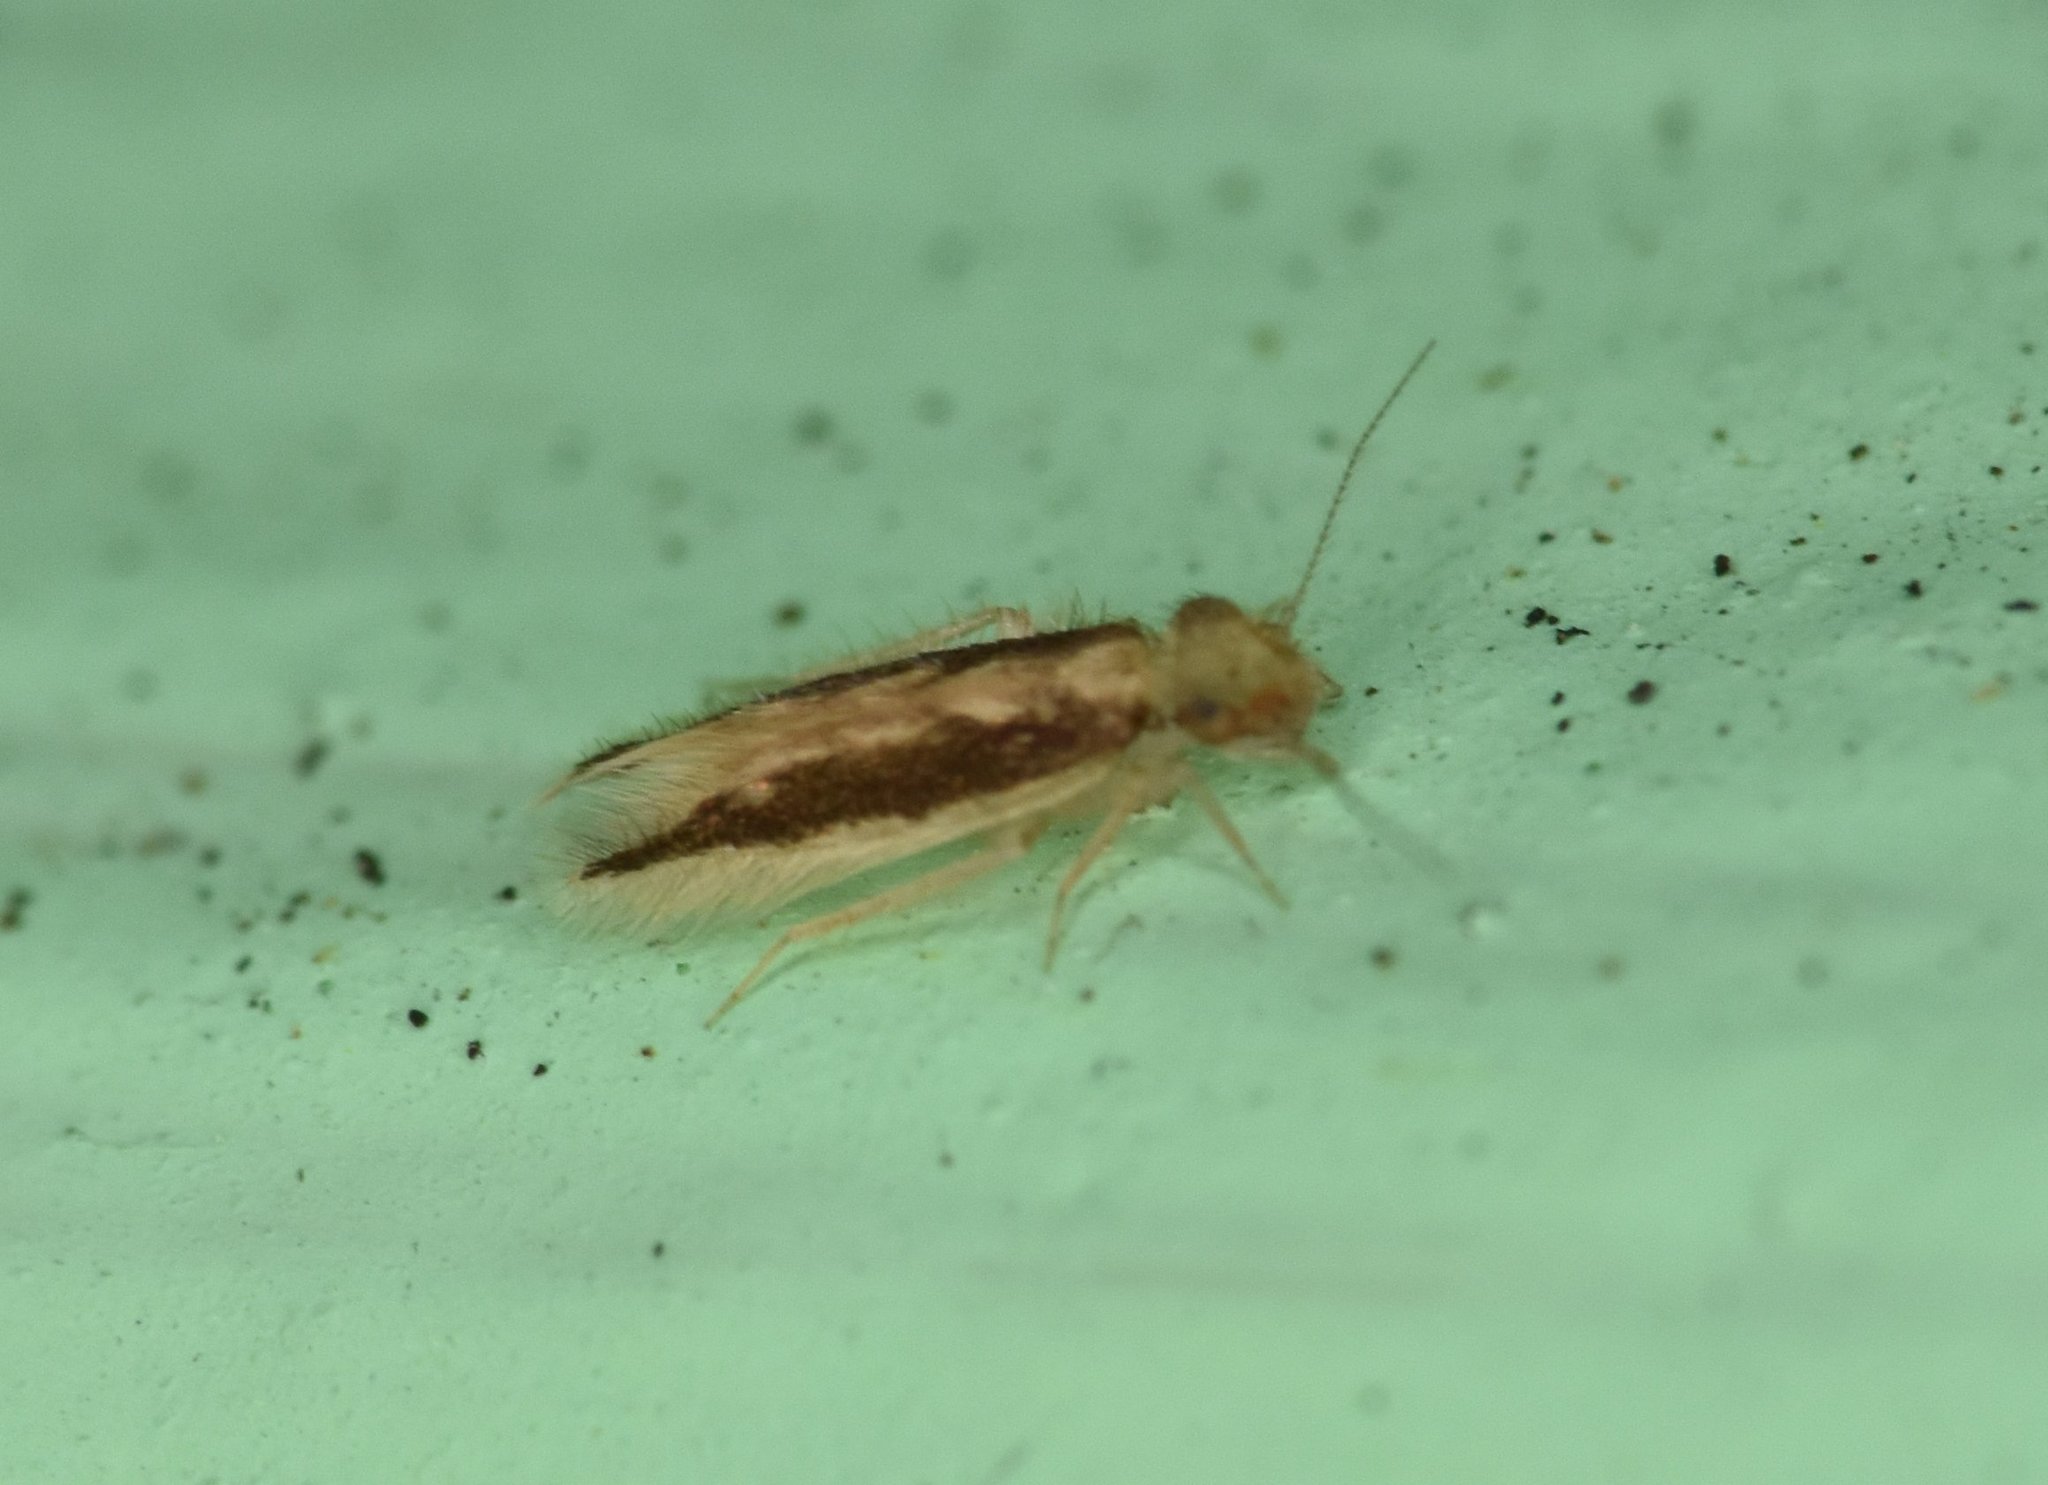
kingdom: Animalia
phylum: Arthropoda
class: Insecta
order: Psocodea
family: Lepidopsocidae
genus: Echmepteryx
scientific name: Echmepteryx madagascariensis
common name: Bark lice
